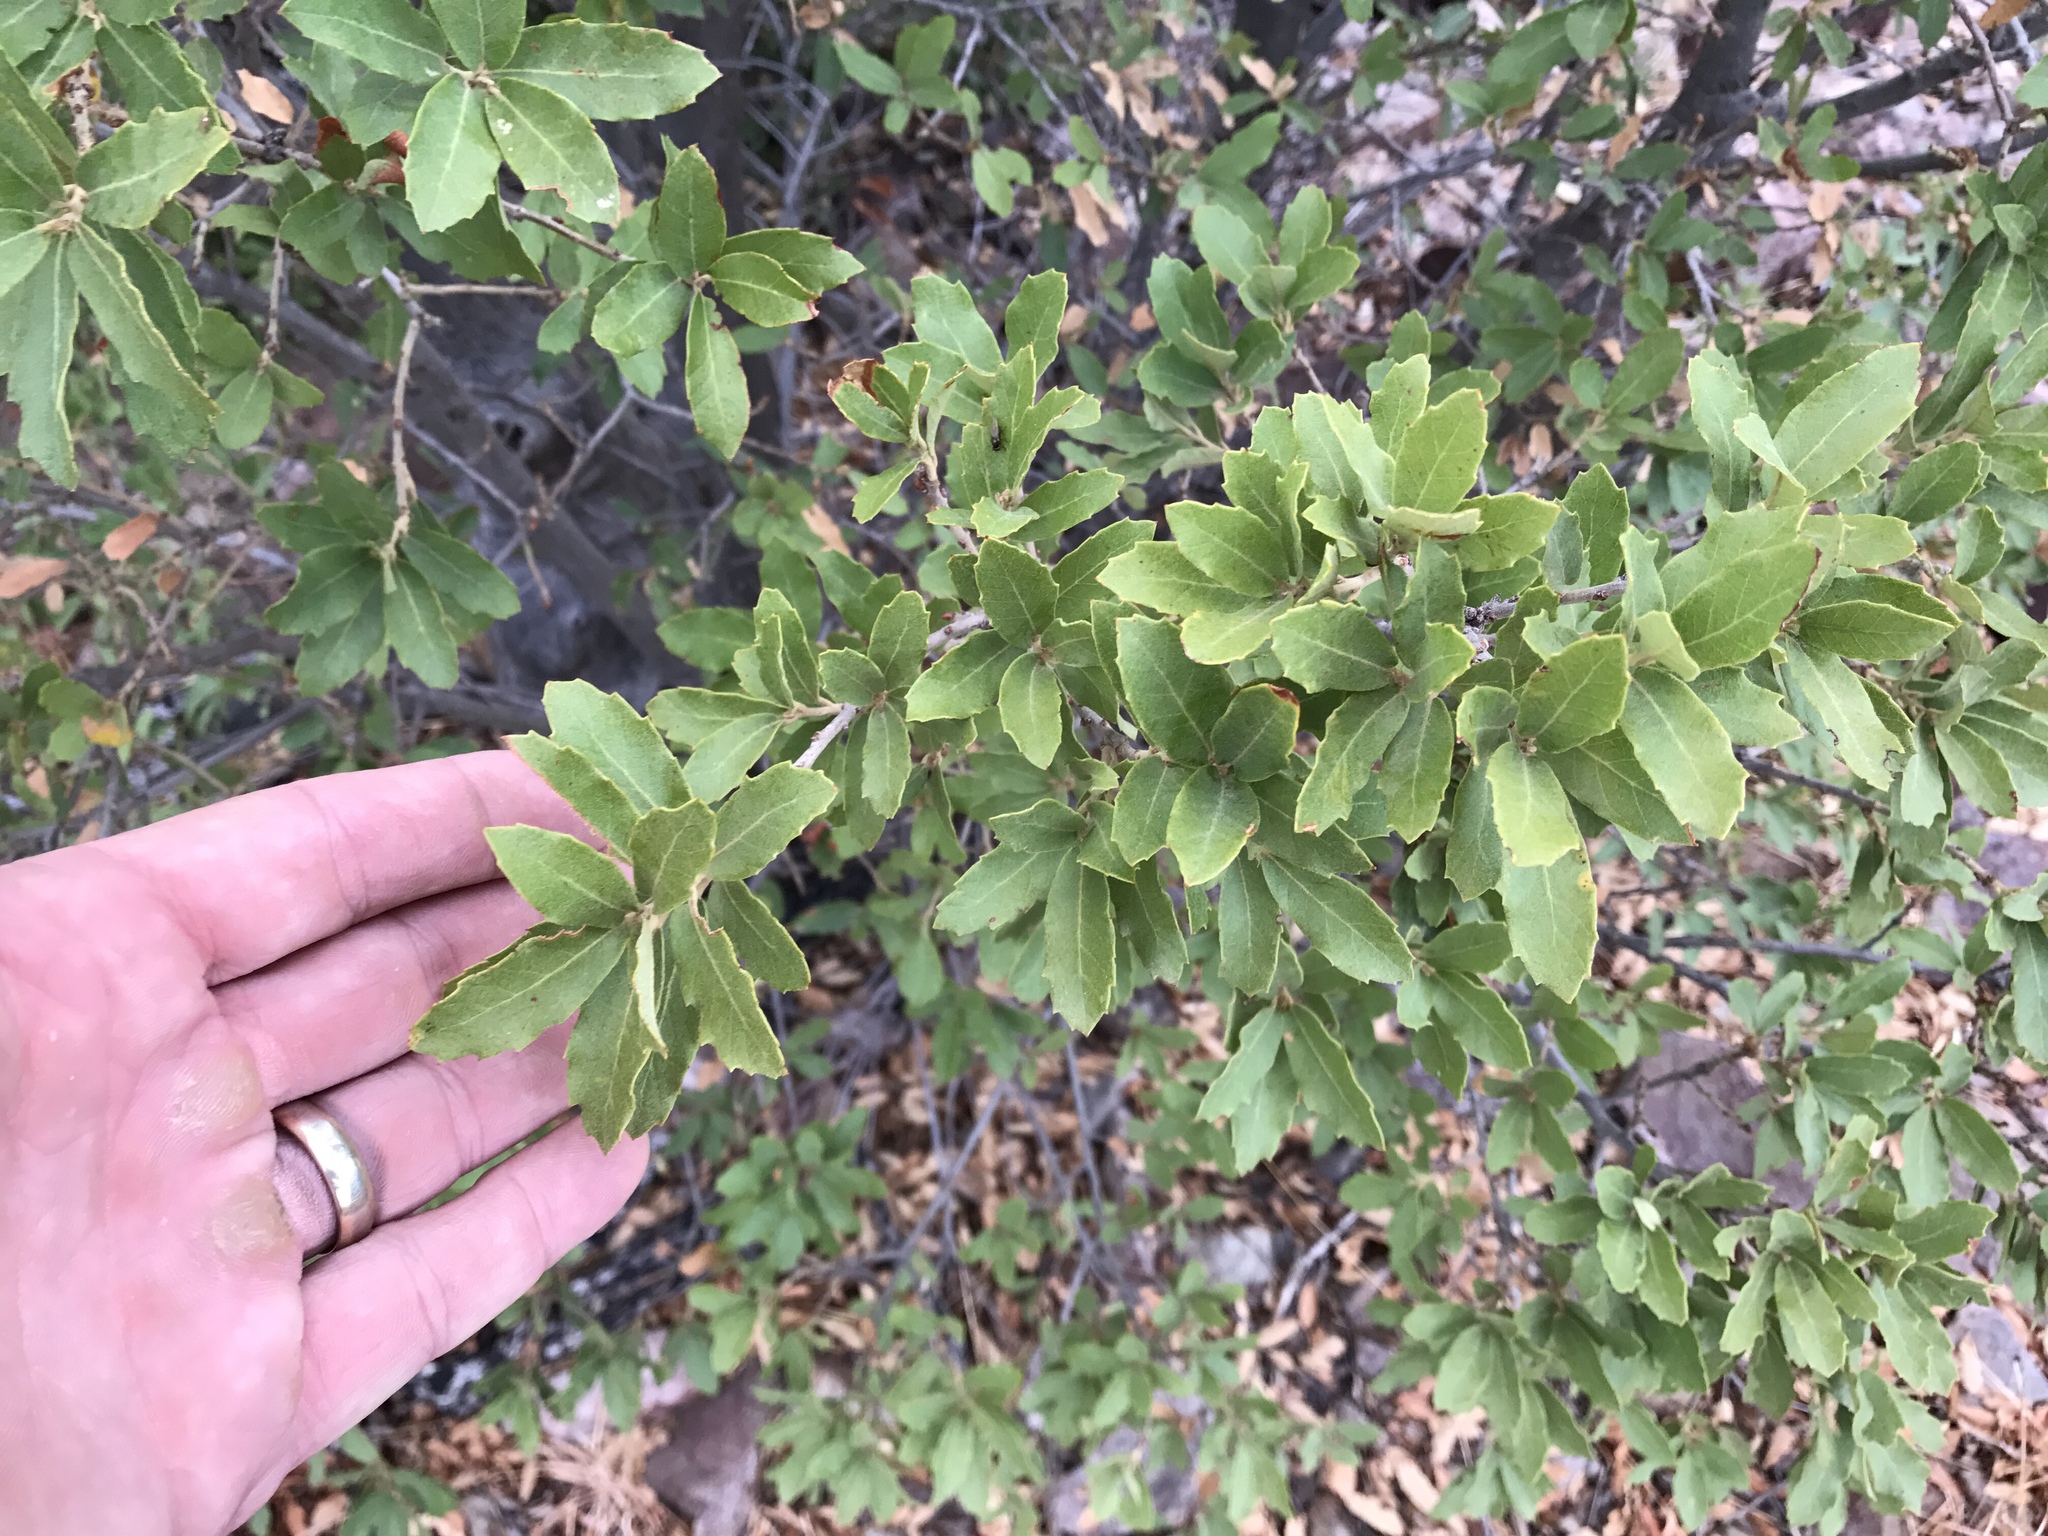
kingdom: Plantae
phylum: Tracheophyta
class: Magnoliopsida
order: Fagales
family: Fagaceae
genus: Quercus
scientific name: Quercus emoryi
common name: Emory oak
